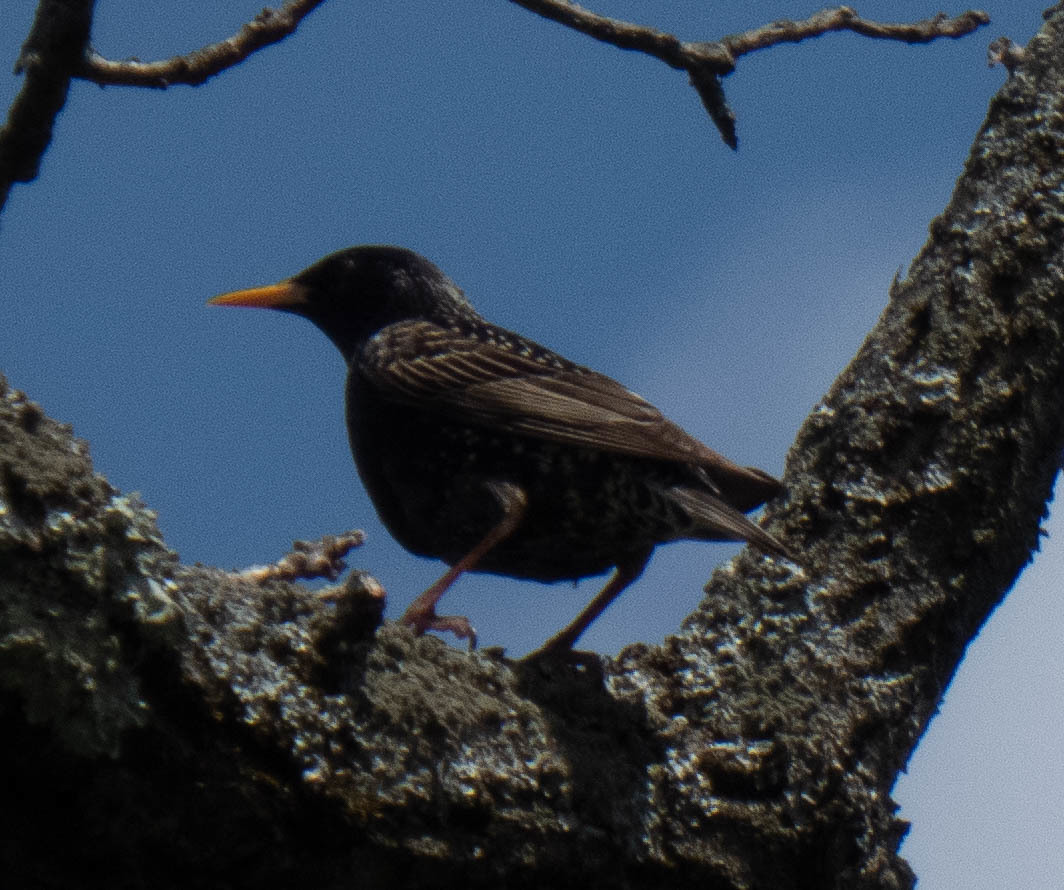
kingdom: Animalia
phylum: Chordata
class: Aves
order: Passeriformes
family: Sturnidae
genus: Sturnus
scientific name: Sturnus vulgaris
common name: Common starling
